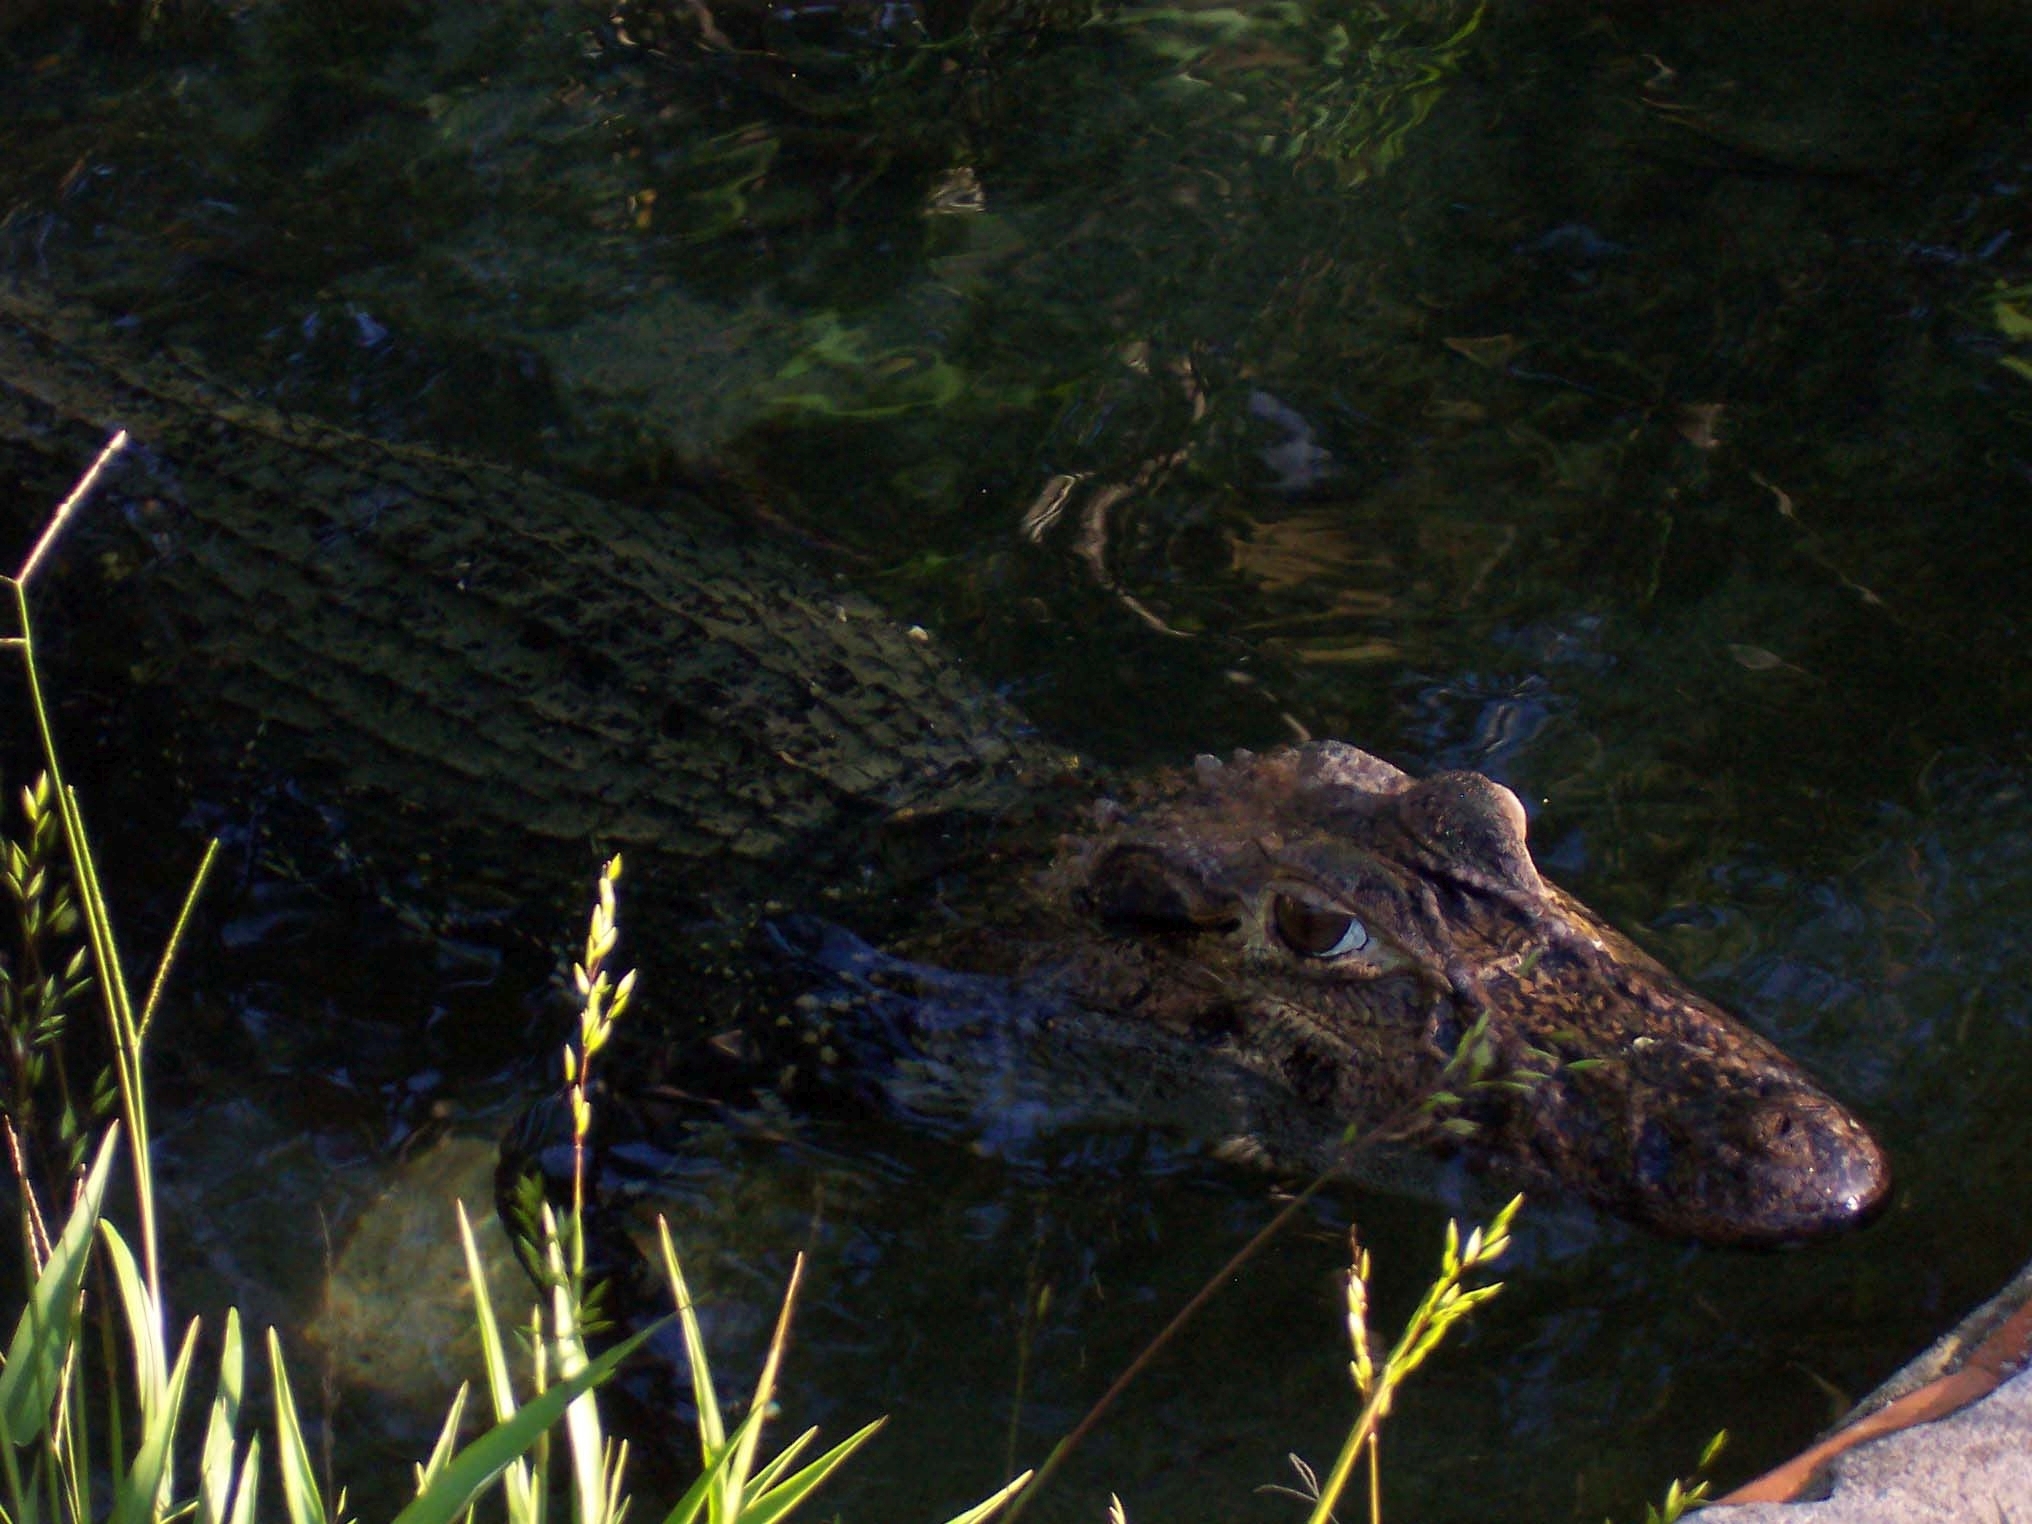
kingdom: Animalia
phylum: Chordata
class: Crocodylia
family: Alligatoridae
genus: Melanosuchus
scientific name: Melanosuchus niger
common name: Black caiman
